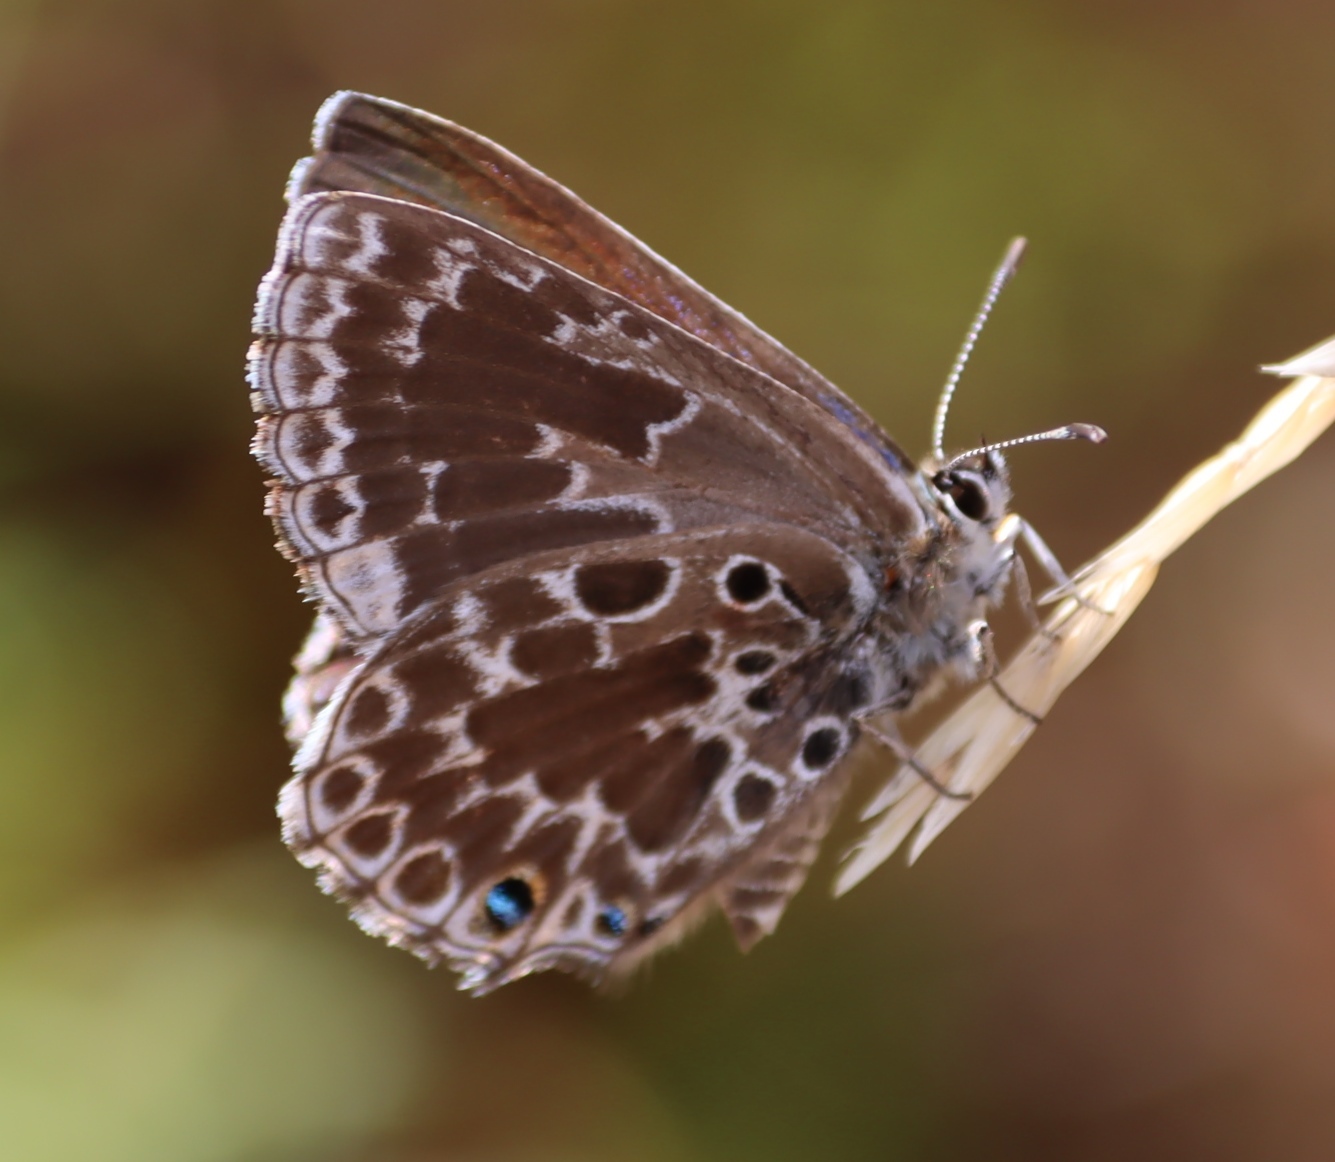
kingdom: Animalia
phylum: Arthropoda
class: Insecta
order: Lepidoptera
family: Lycaenidae
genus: Lepidochrysops
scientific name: Lepidochrysops trimeni
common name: Trimen's blue
